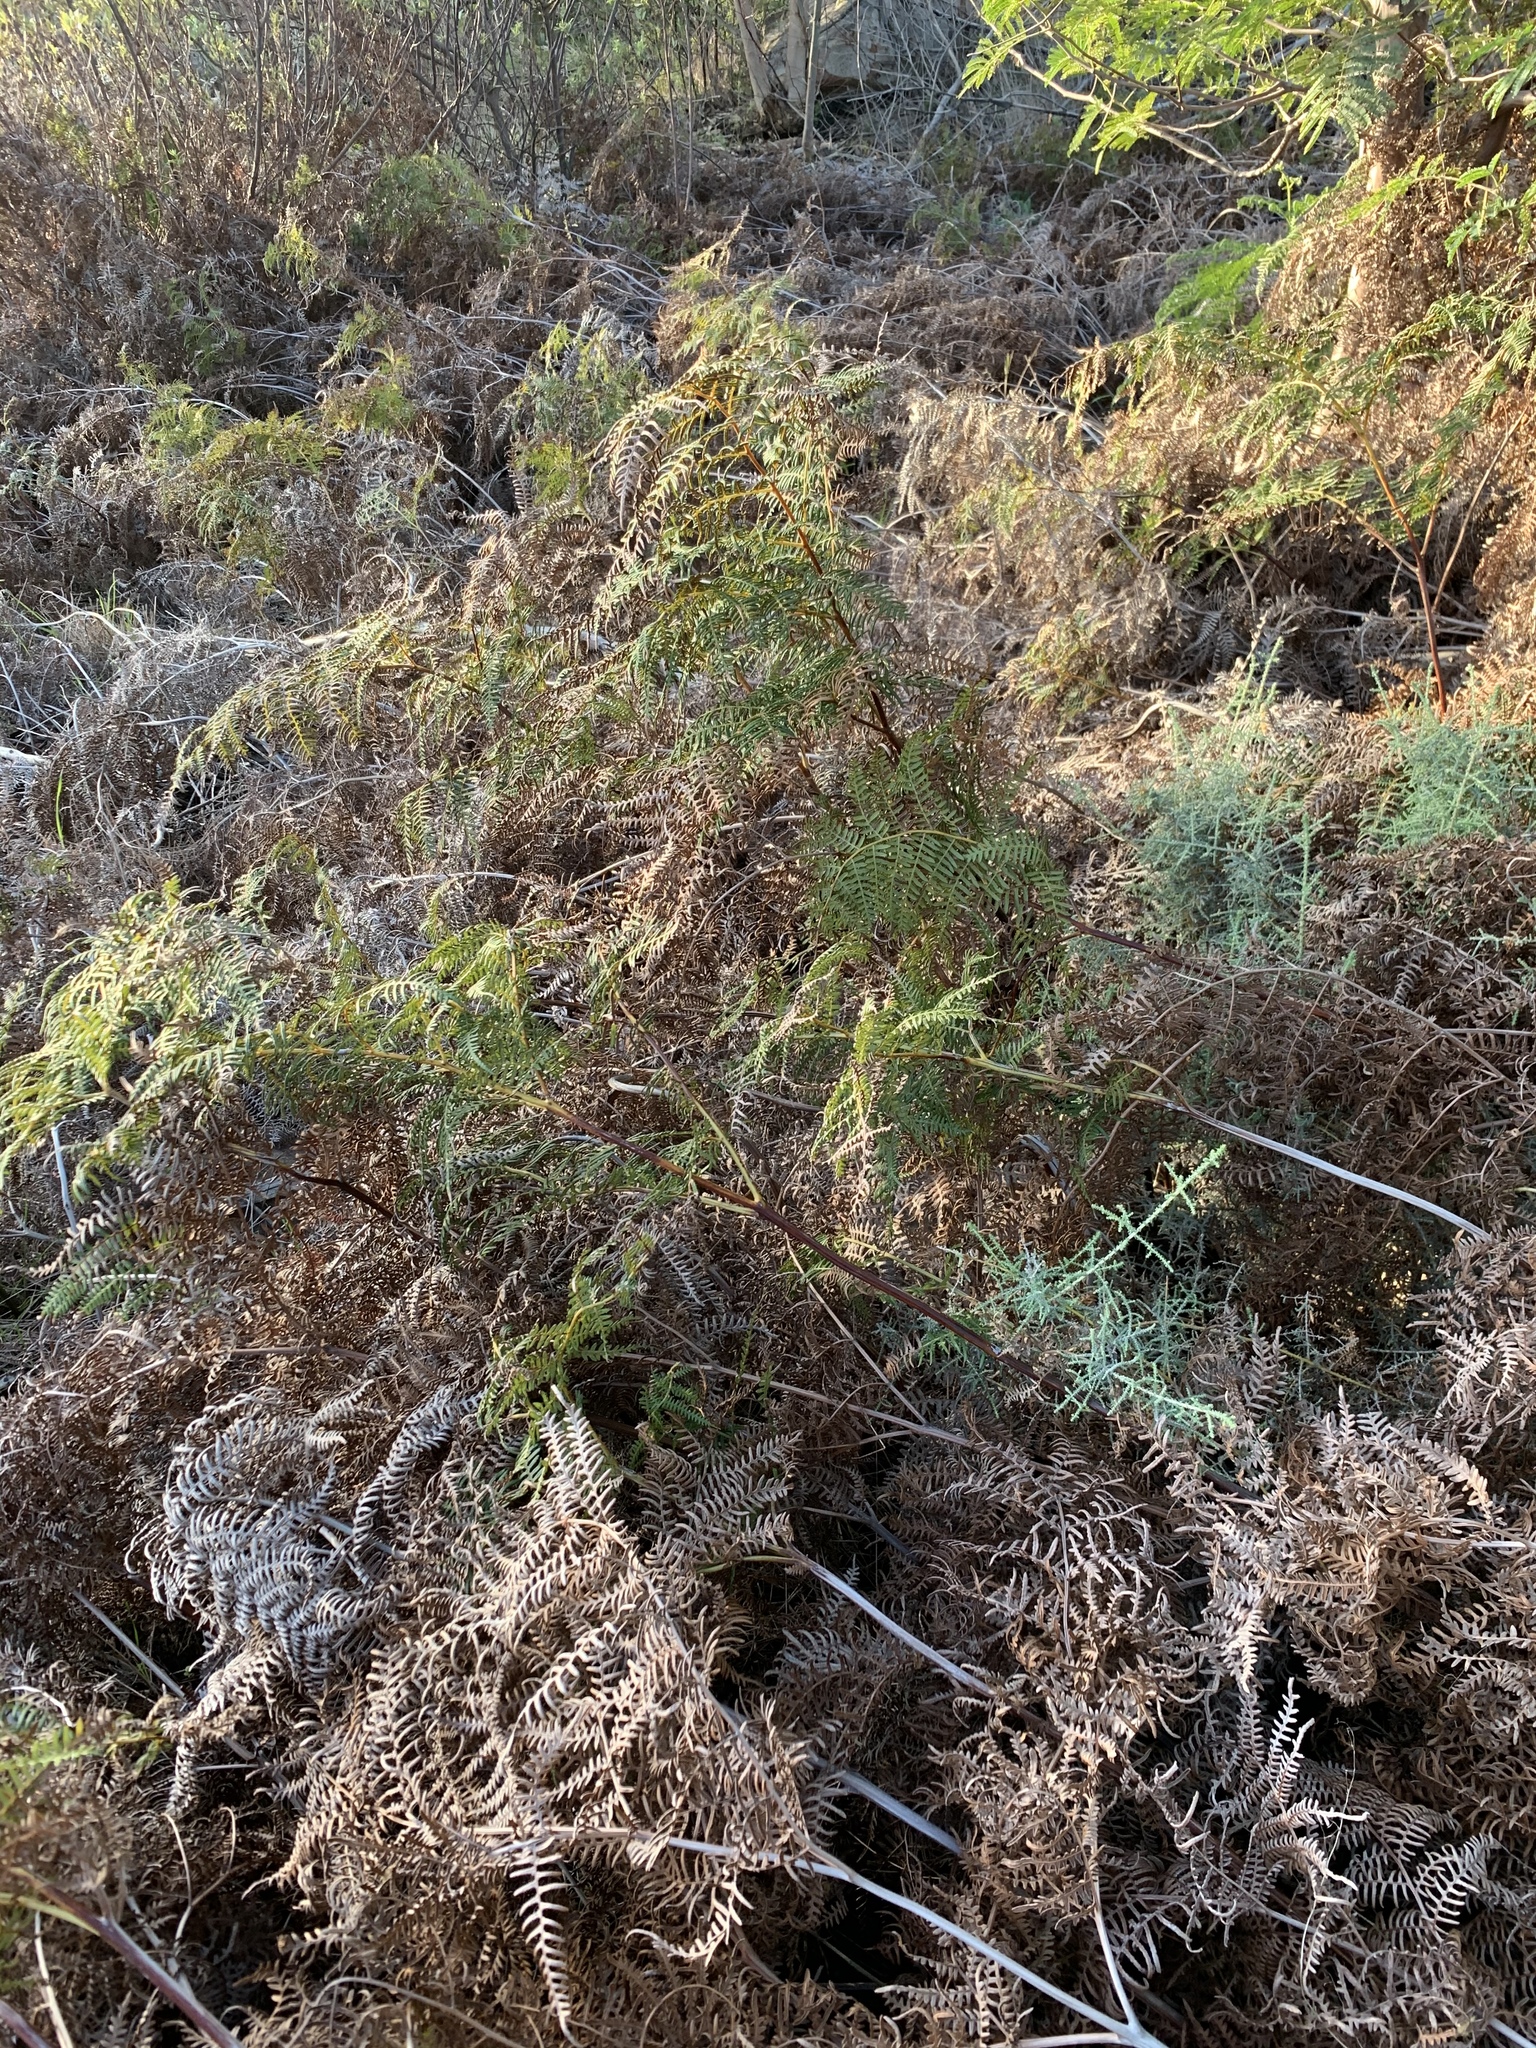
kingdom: Plantae
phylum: Tracheophyta
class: Polypodiopsida
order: Polypodiales
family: Dennstaedtiaceae
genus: Pteridium
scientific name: Pteridium aquilinum
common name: Bracken
